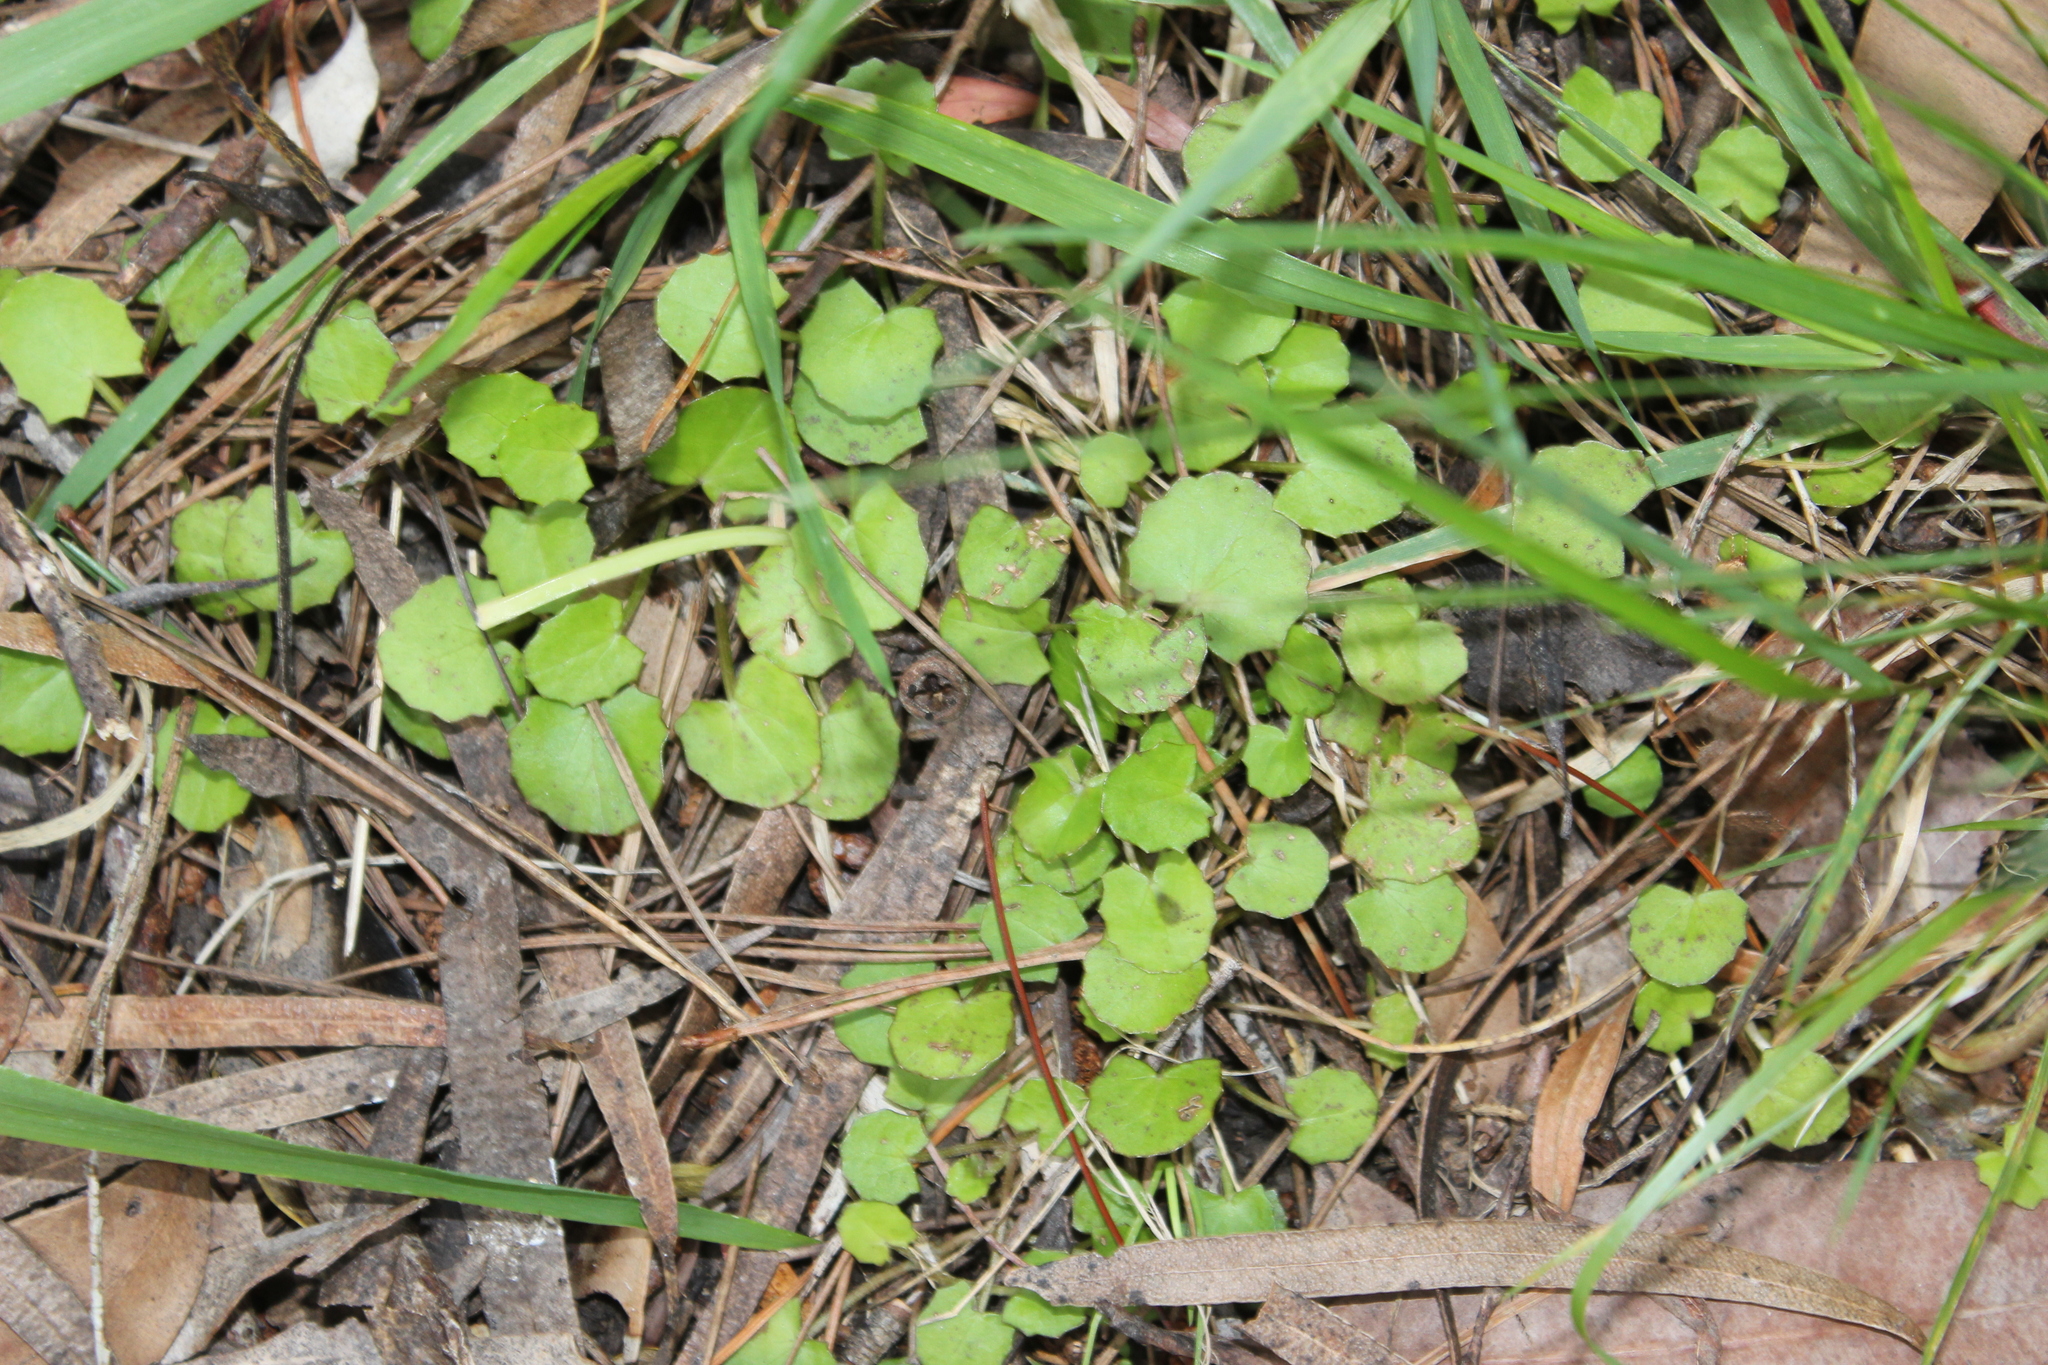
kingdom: Plantae
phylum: Tracheophyta
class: Magnoliopsida
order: Apiales
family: Apiaceae
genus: Centella
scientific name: Centella uniflora
